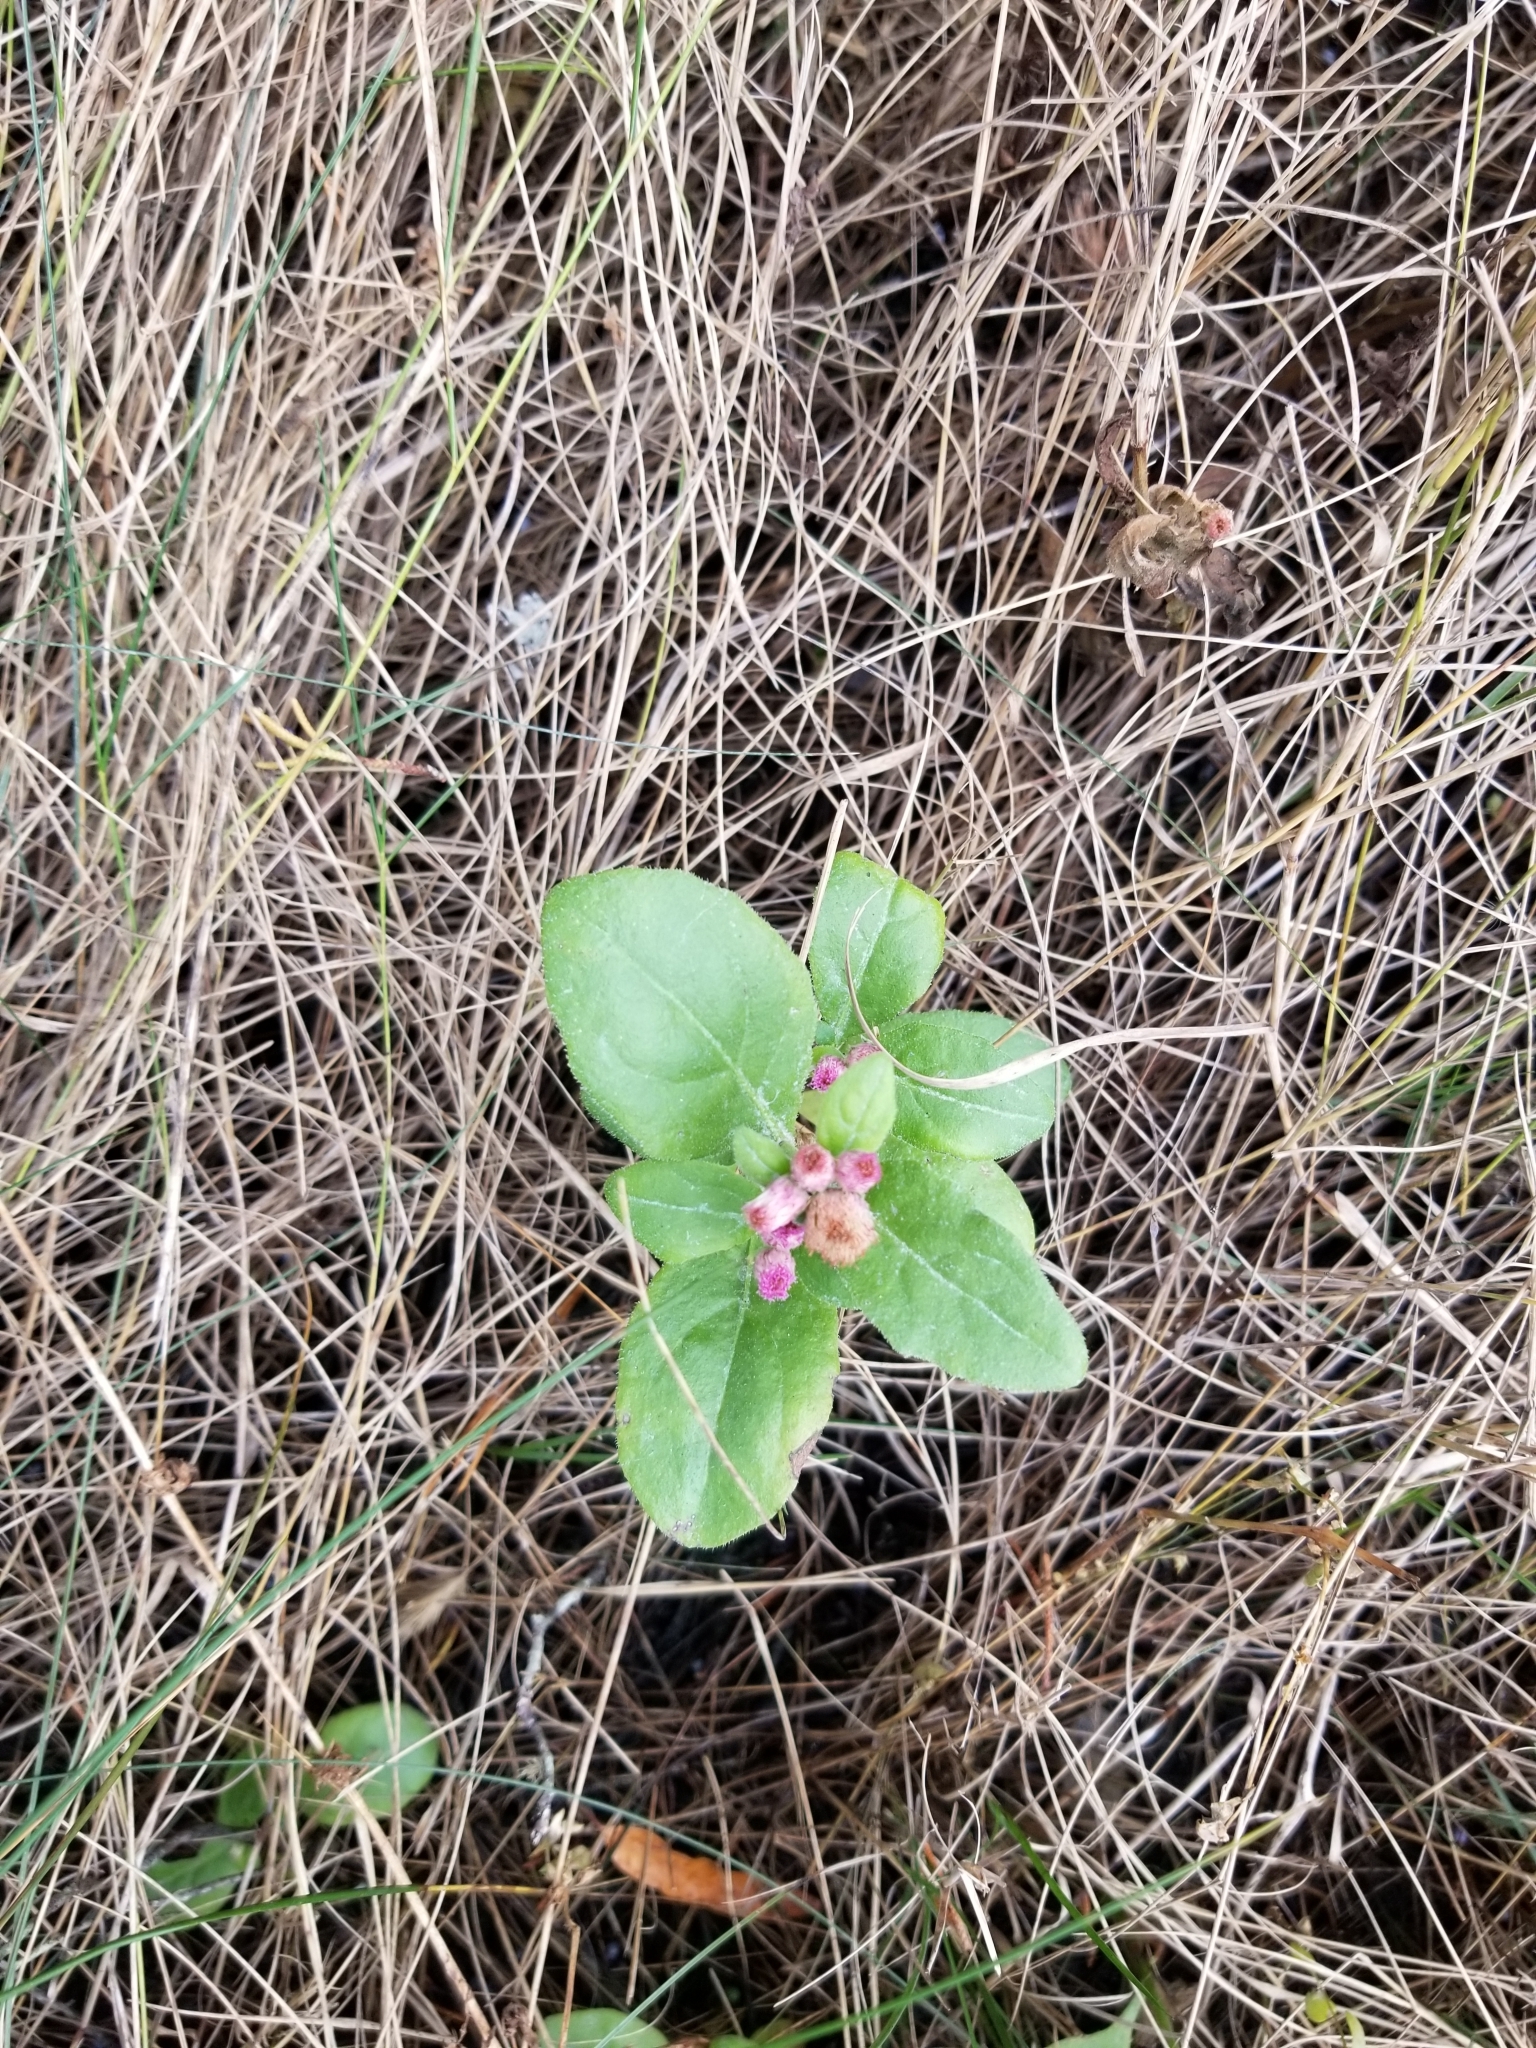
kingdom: Plantae
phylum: Tracheophyta
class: Magnoliopsida
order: Asterales
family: Asteraceae
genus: Pluchea
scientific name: Pluchea odorata
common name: Saltmarsh fleabane
